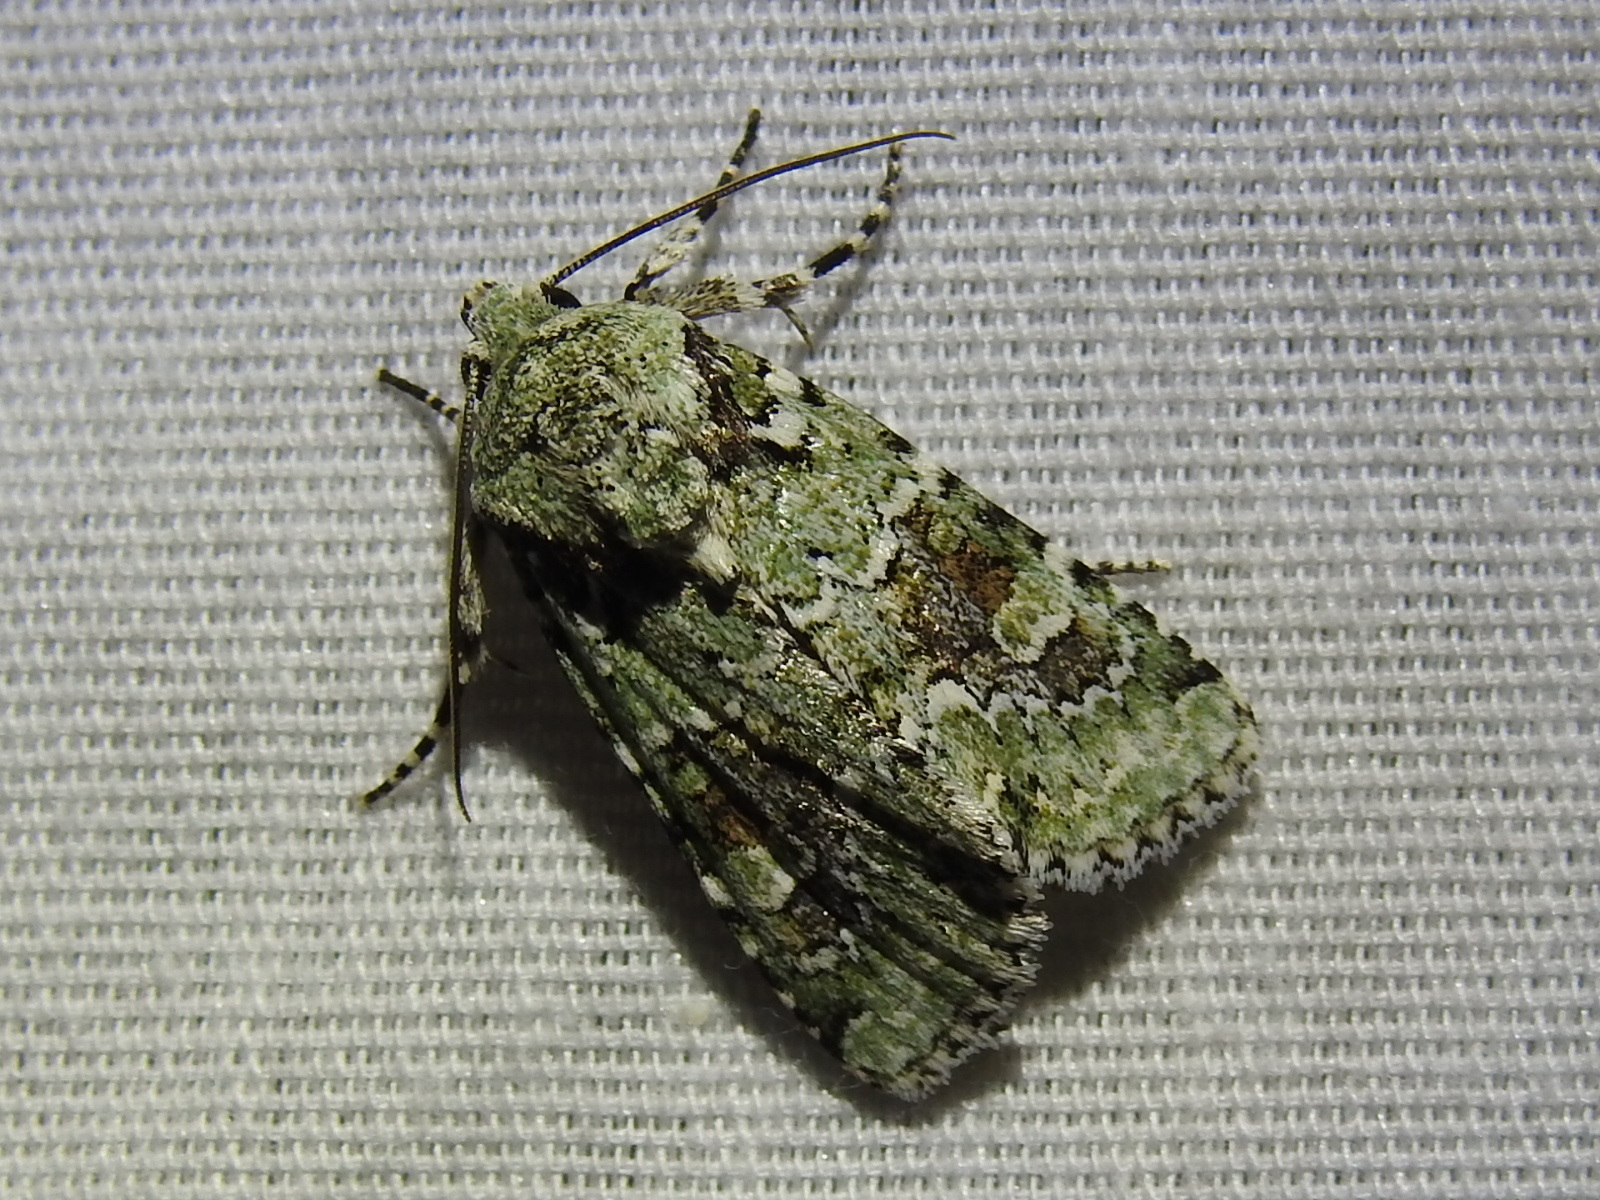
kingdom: Animalia
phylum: Arthropoda
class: Insecta
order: Lepidoptera
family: Noctuidae
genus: Lacinipolia
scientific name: Lacinipolia laudabilis
